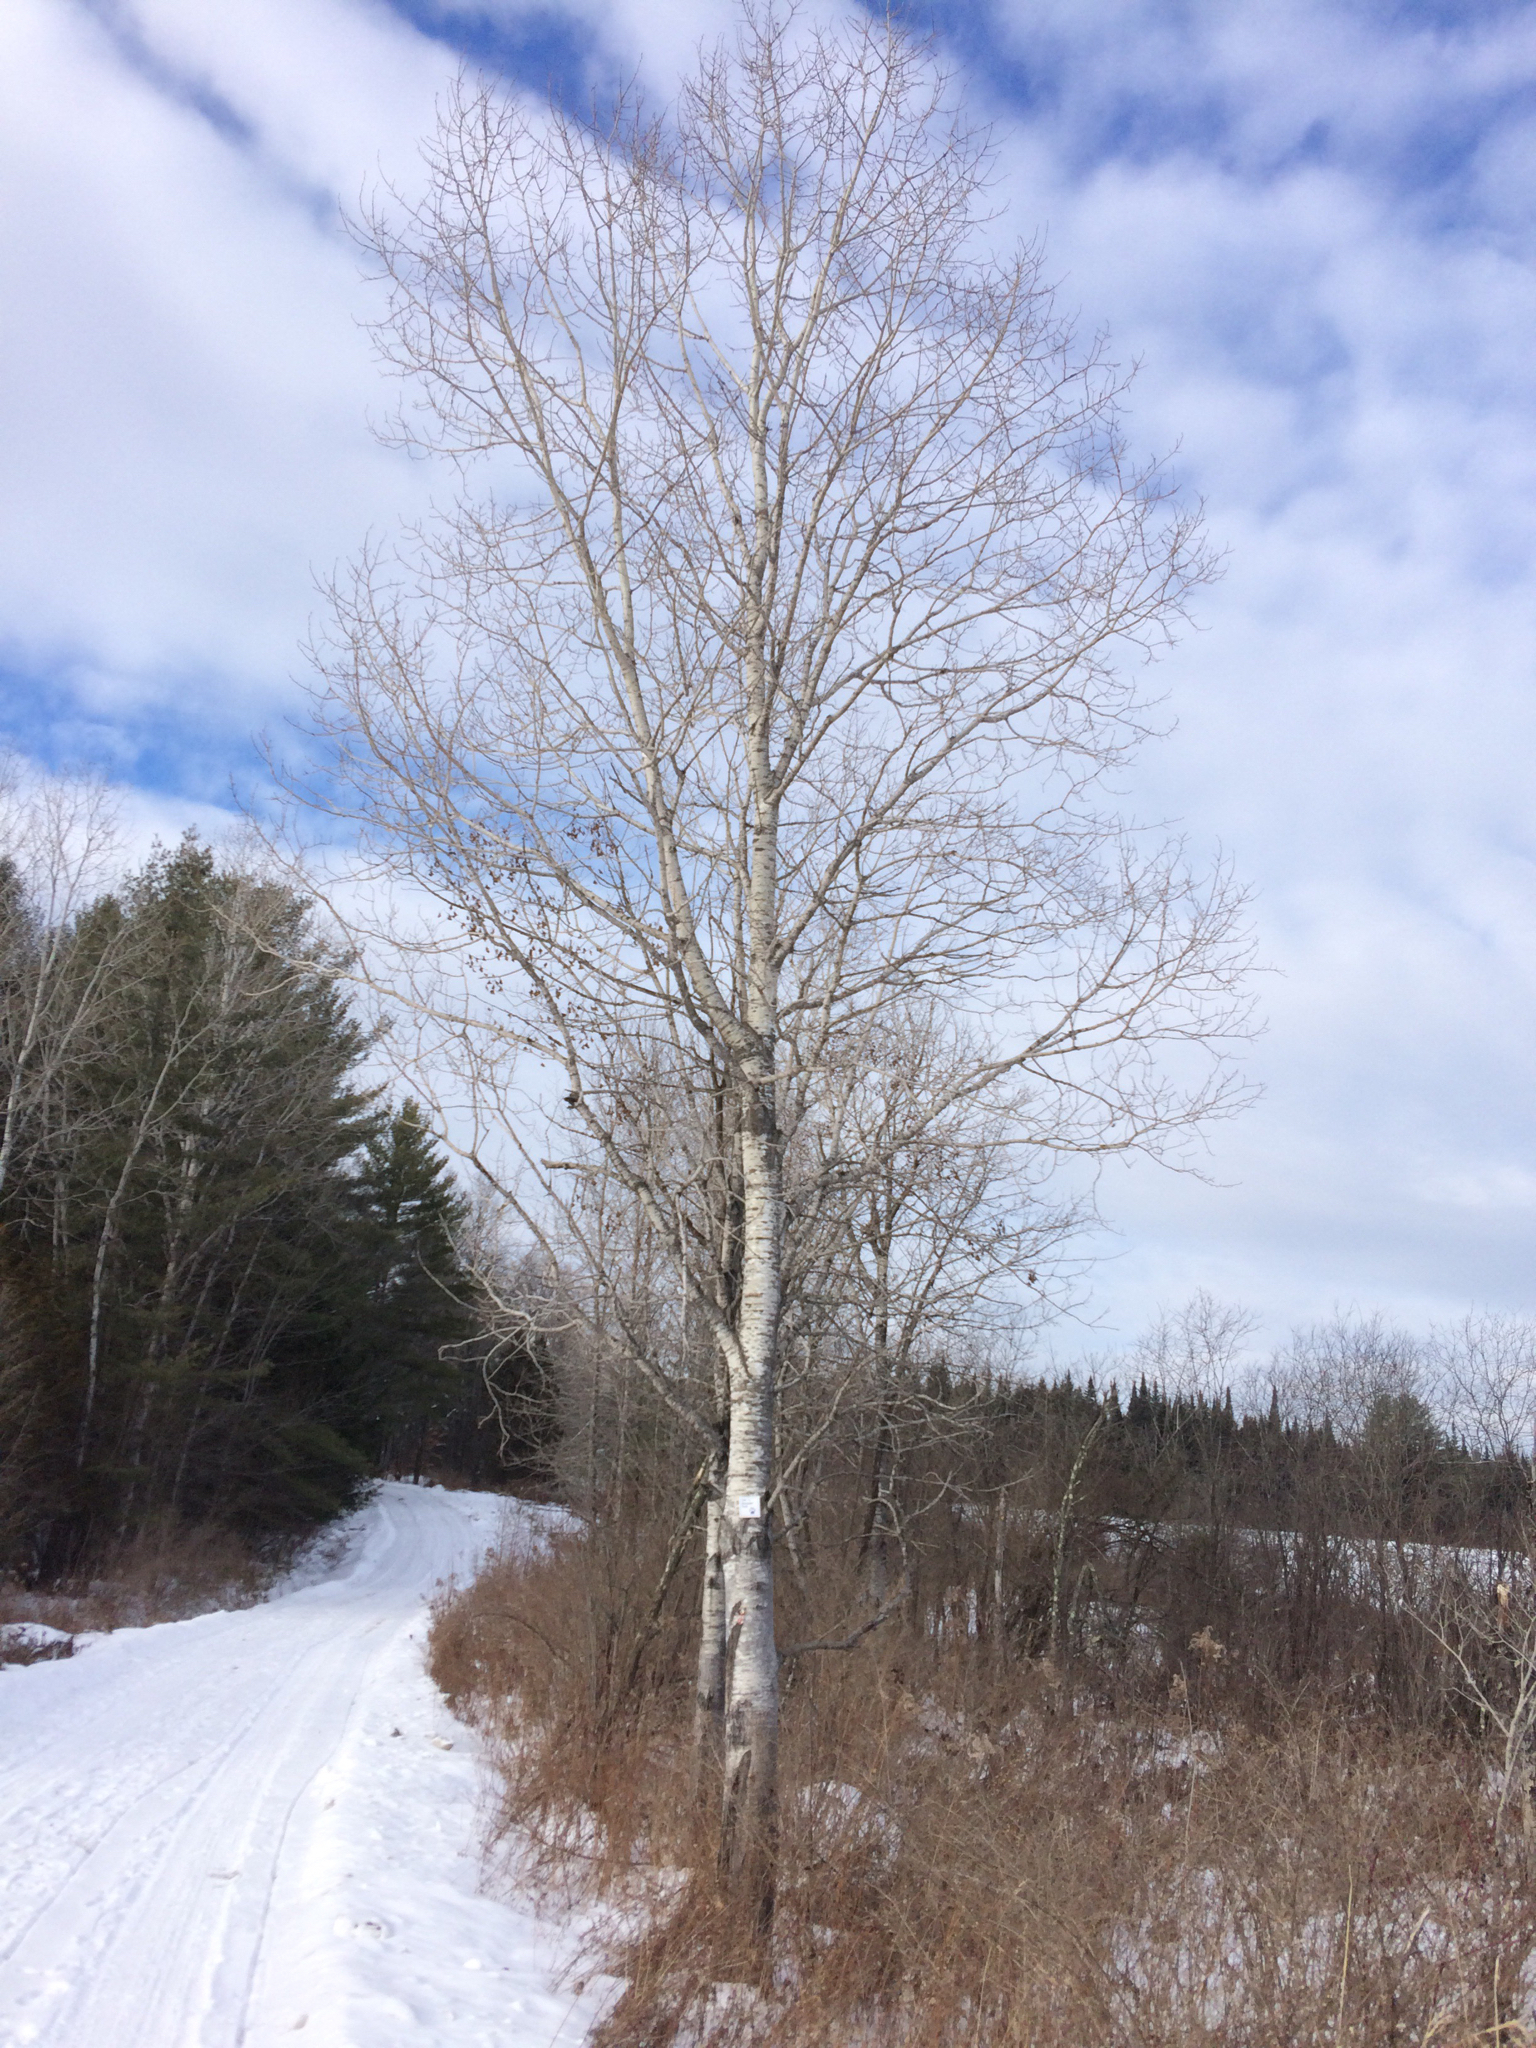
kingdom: Plantae
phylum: Tracheophyta
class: Magnoliopsida
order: Malpighiales
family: Salicaceae
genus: Populus
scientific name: Populus tremuloides
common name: Quaking aspen
